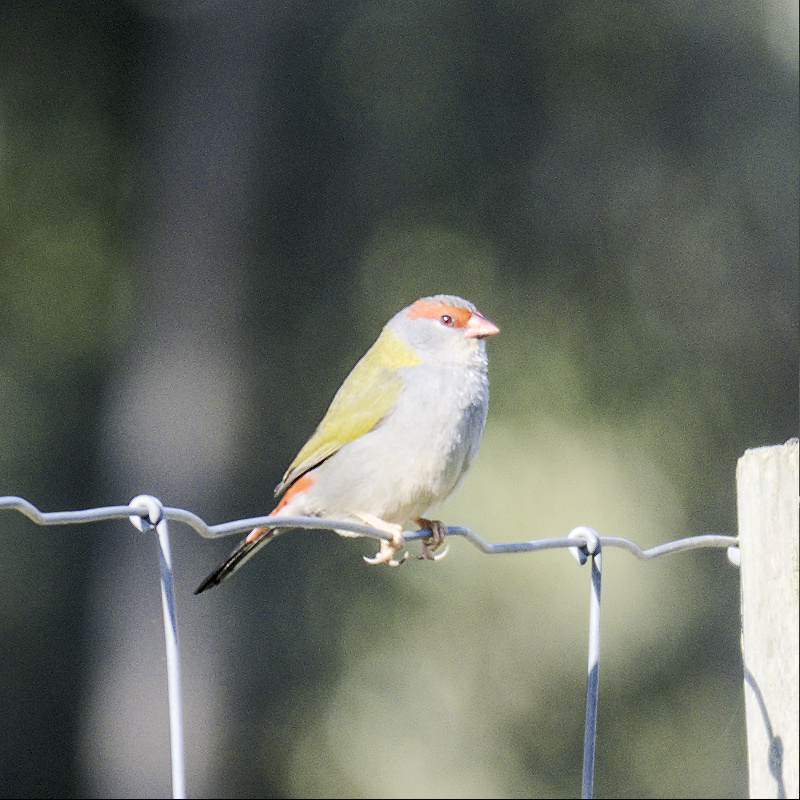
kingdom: Animalia
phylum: Chordata
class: Aves
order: Passeriformes
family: Estrildidae
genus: Neochmia
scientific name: Neochmia temporalis
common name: Red-browed finch
